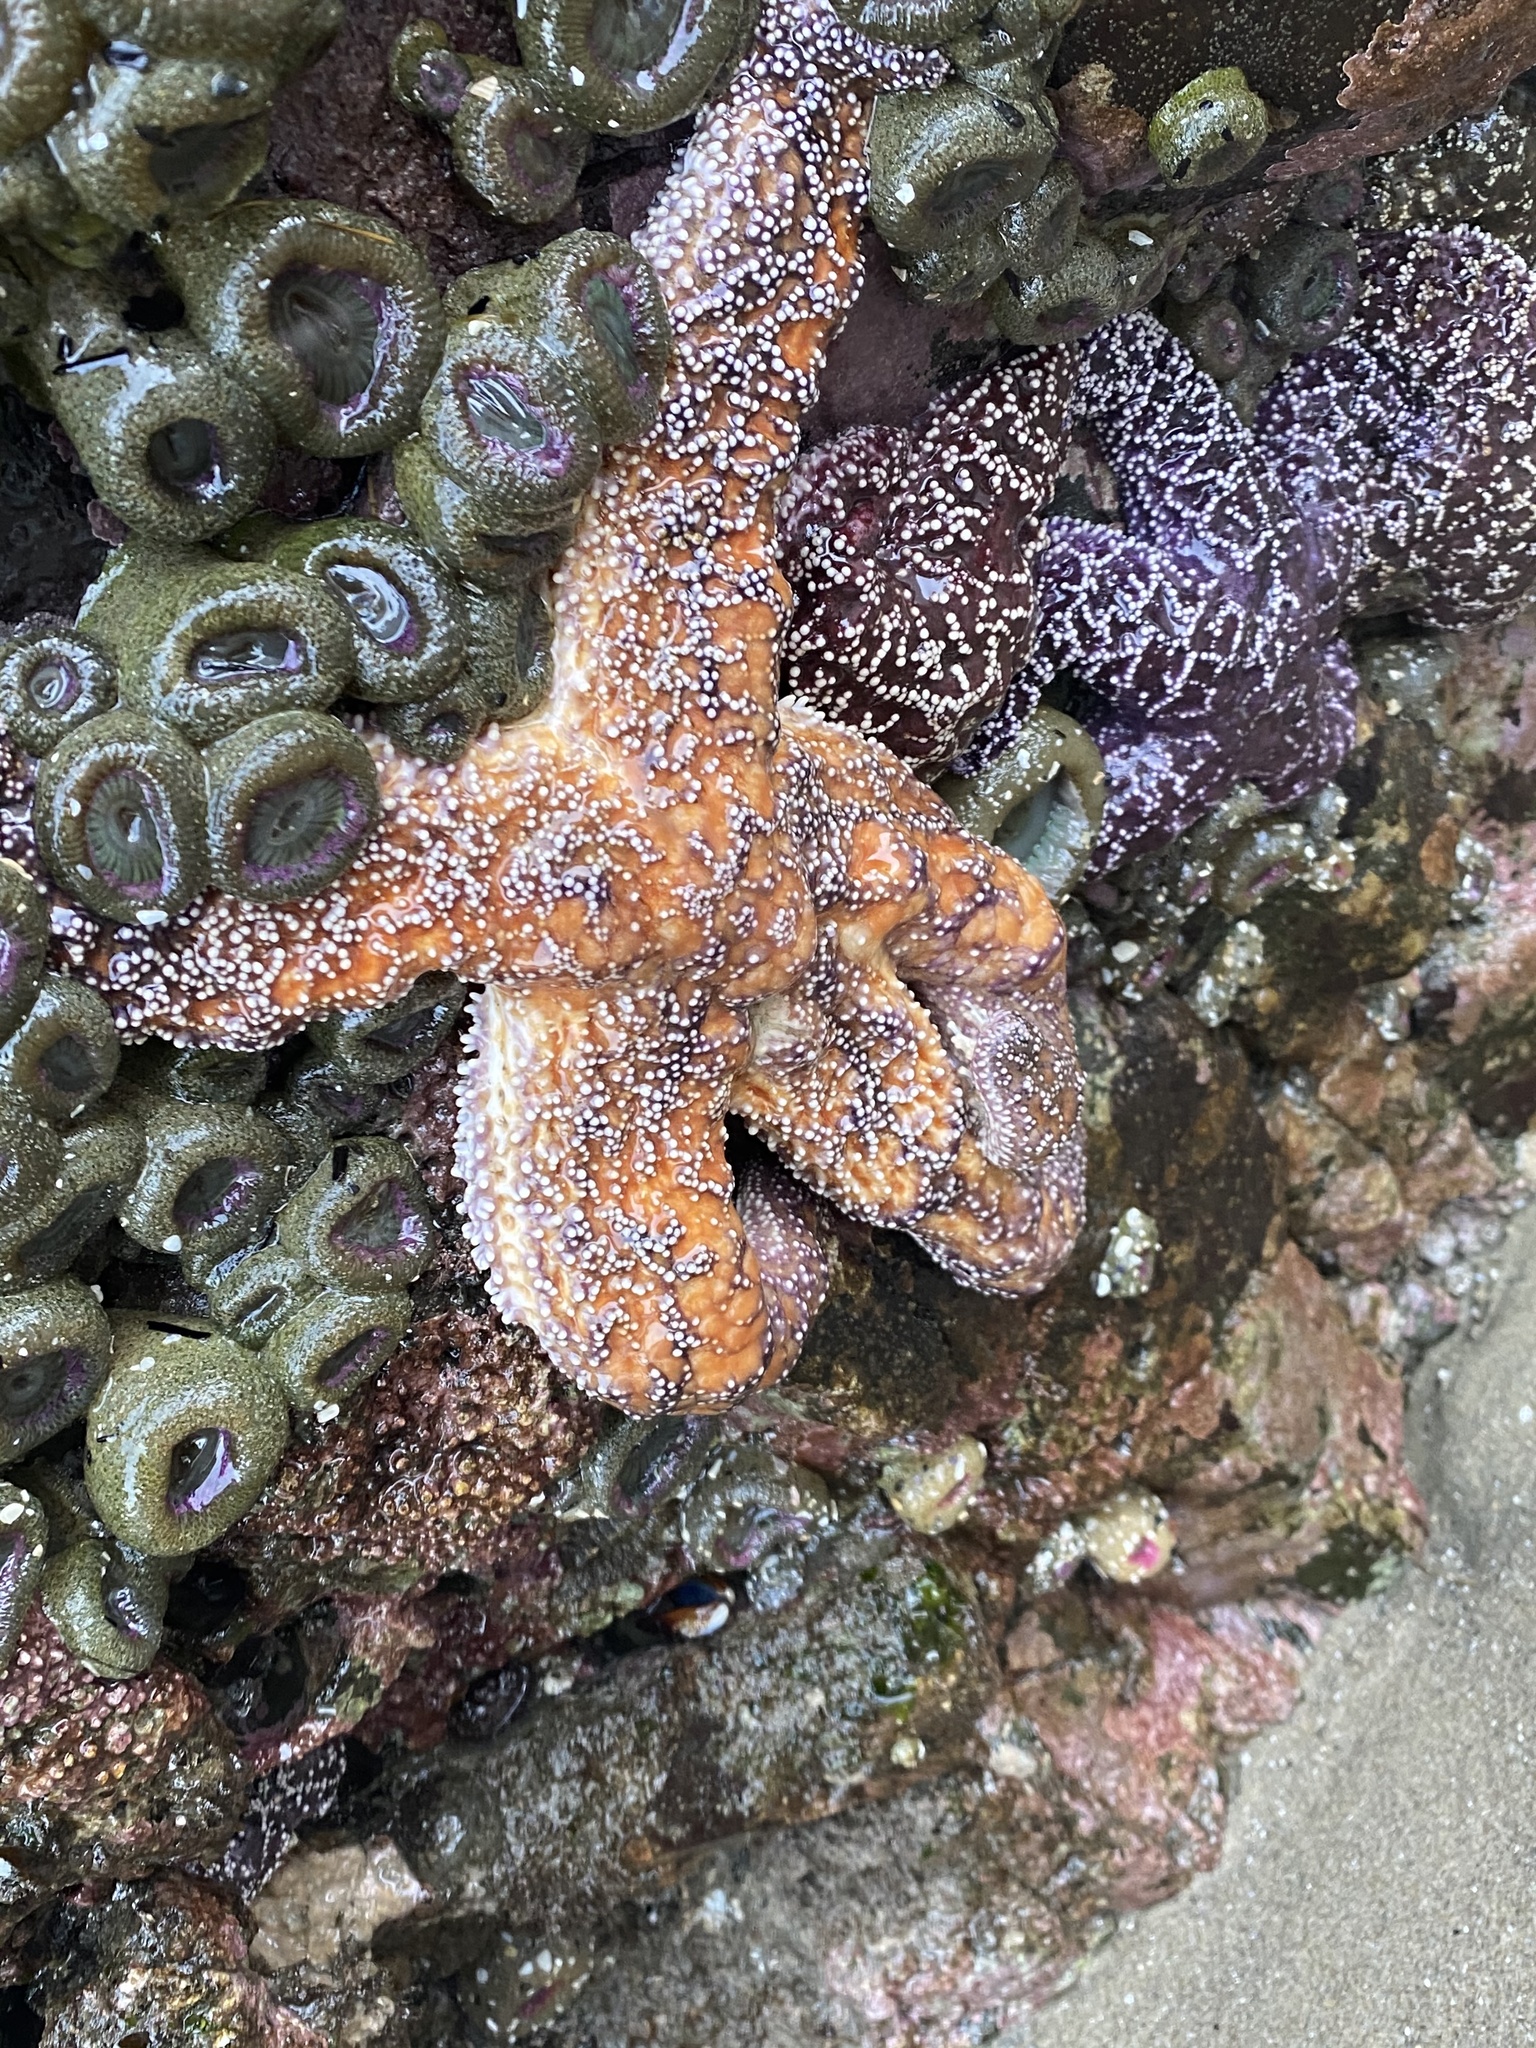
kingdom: Animalia
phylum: Echinodermata
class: Asteroidea
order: Forcipulatida
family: Asteriidae
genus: Pisaster
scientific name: Pisaster ochraceus
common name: Ochre stars
